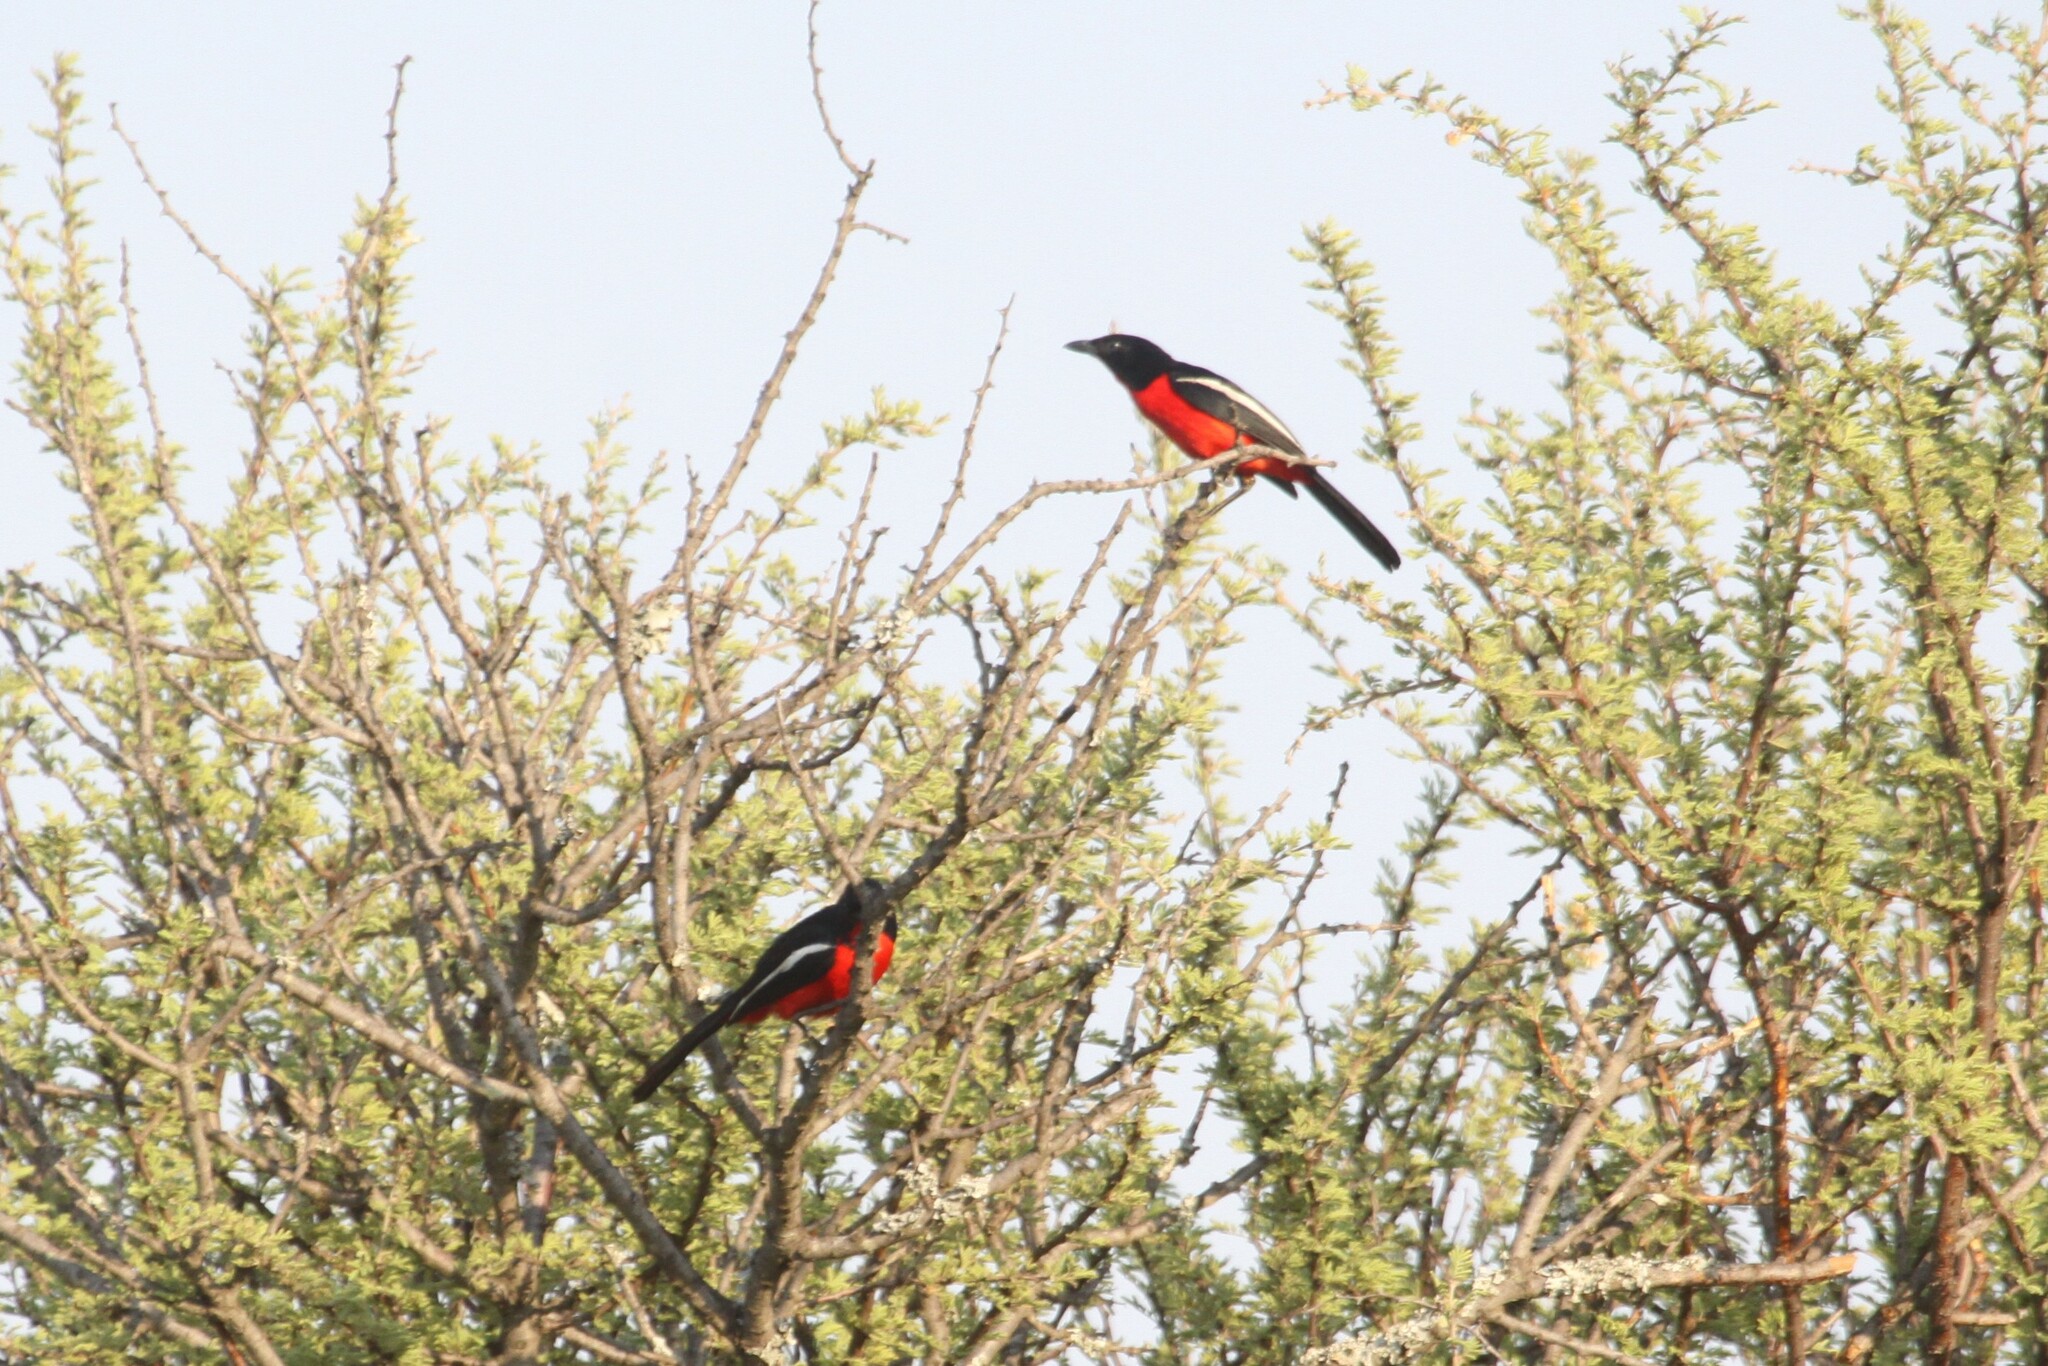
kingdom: Animalia
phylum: Chordata
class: Aves
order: Passeriformes
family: Malaconotidae
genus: Laniarius
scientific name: Laniarius atrococcineus
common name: Crimson-breasted shrike
